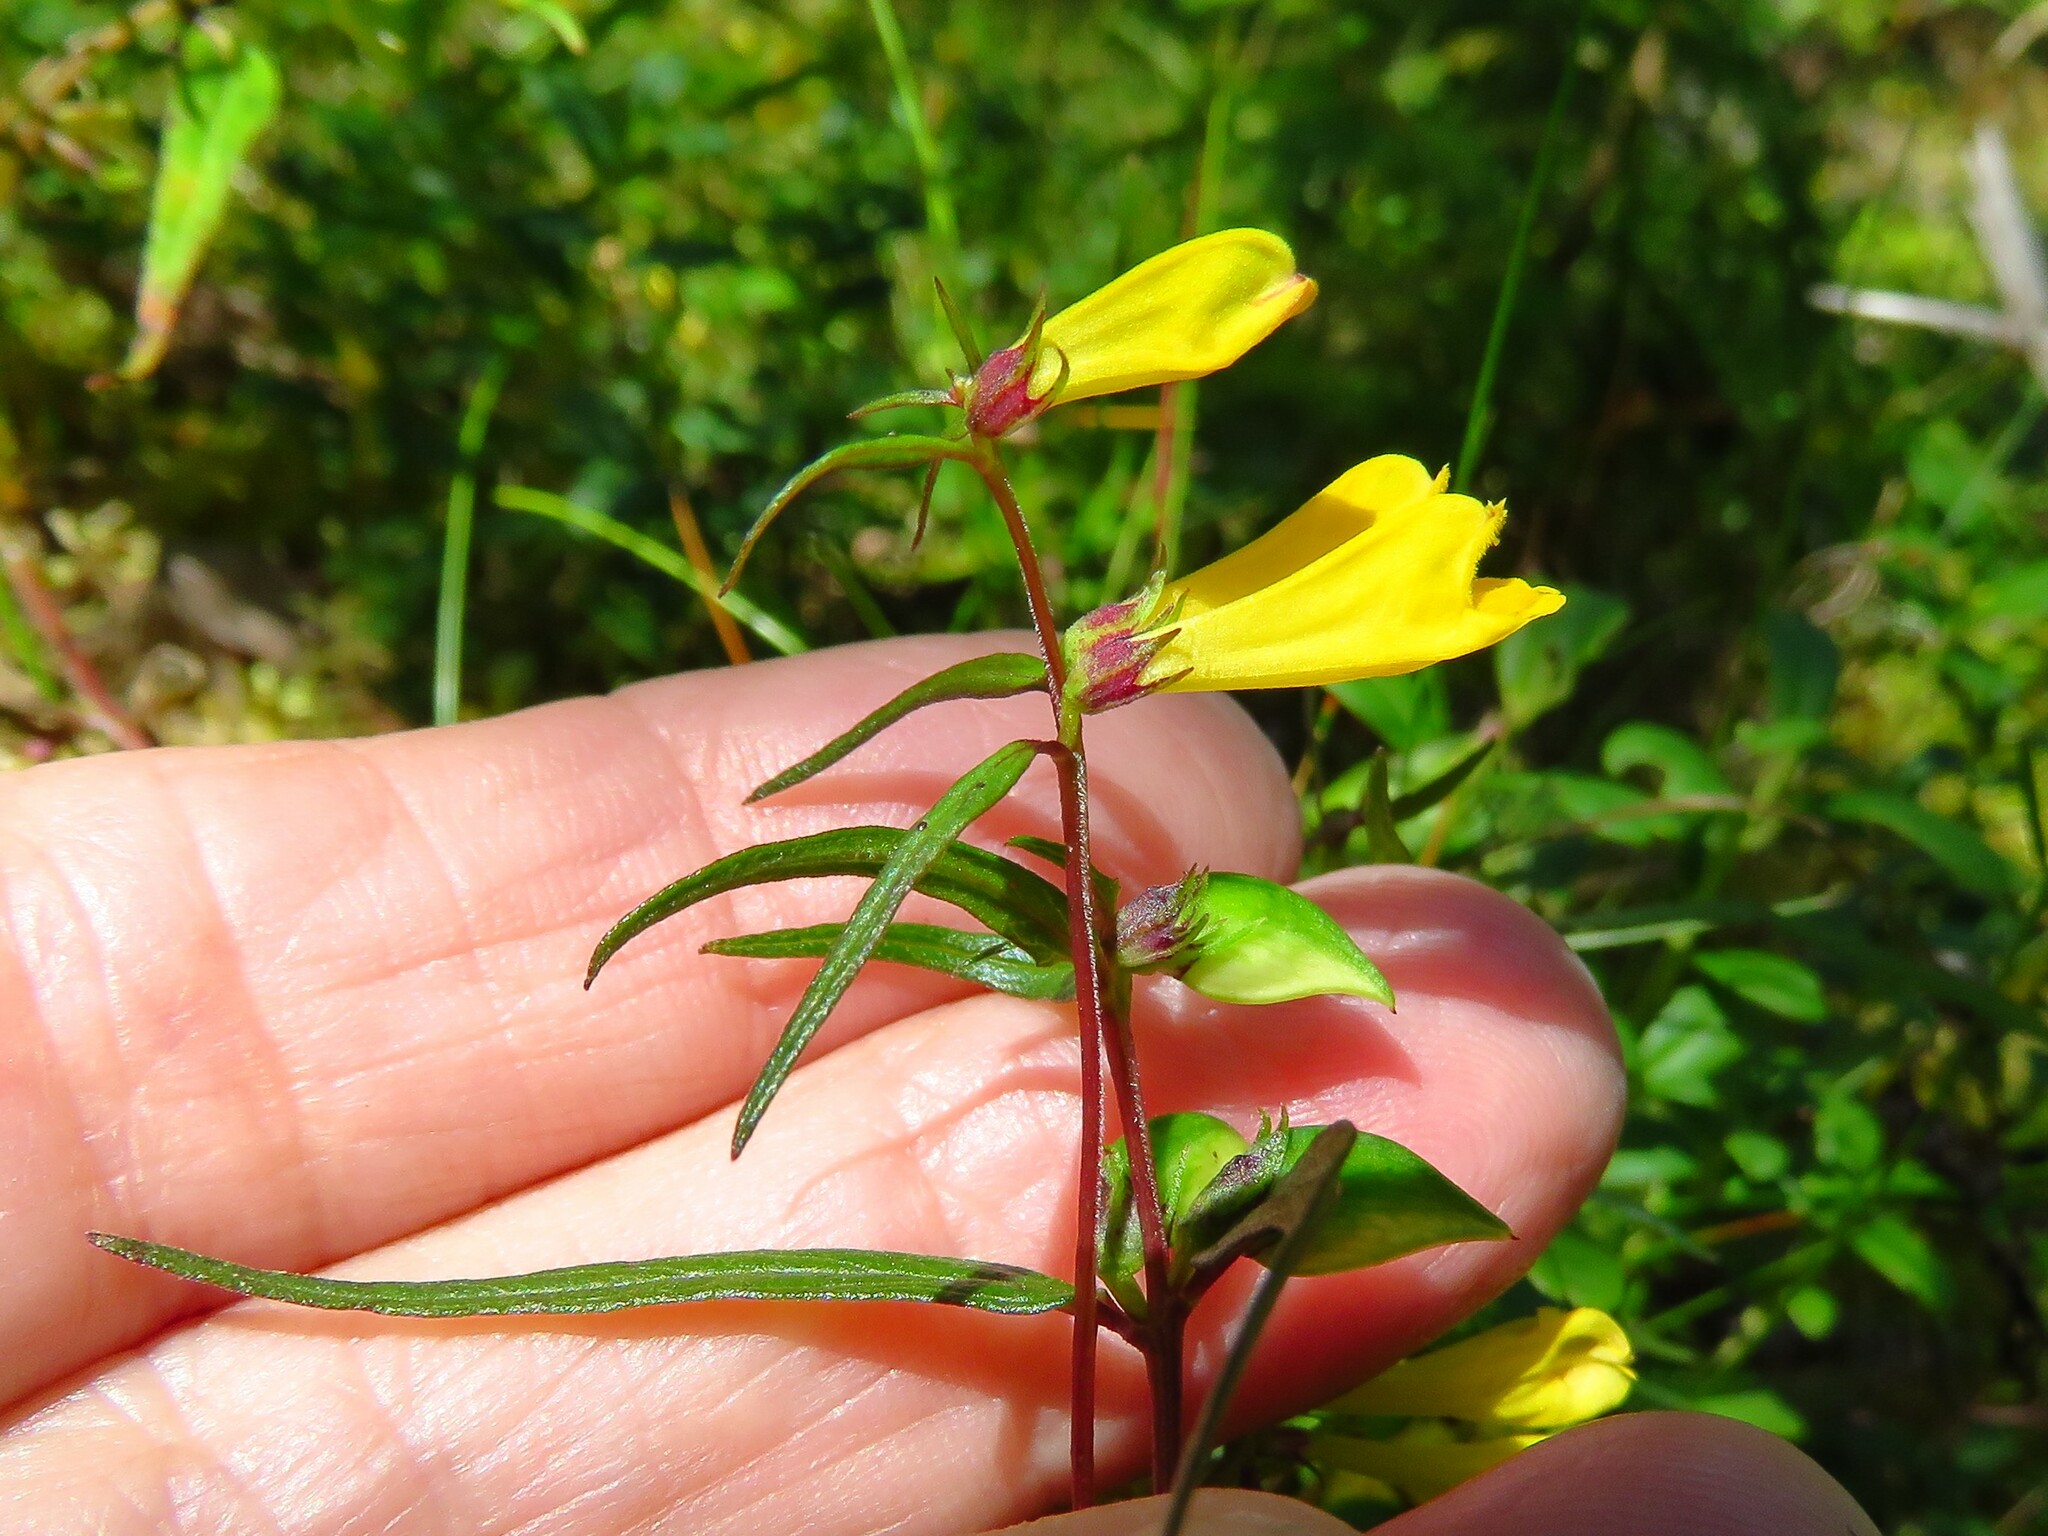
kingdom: Plantae
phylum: Tracheophyta
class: Magnoliopsida
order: Lamiales
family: Orobanchaceae
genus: Melampyrum
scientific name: Melampyrum pratense
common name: Common cow-wheat
